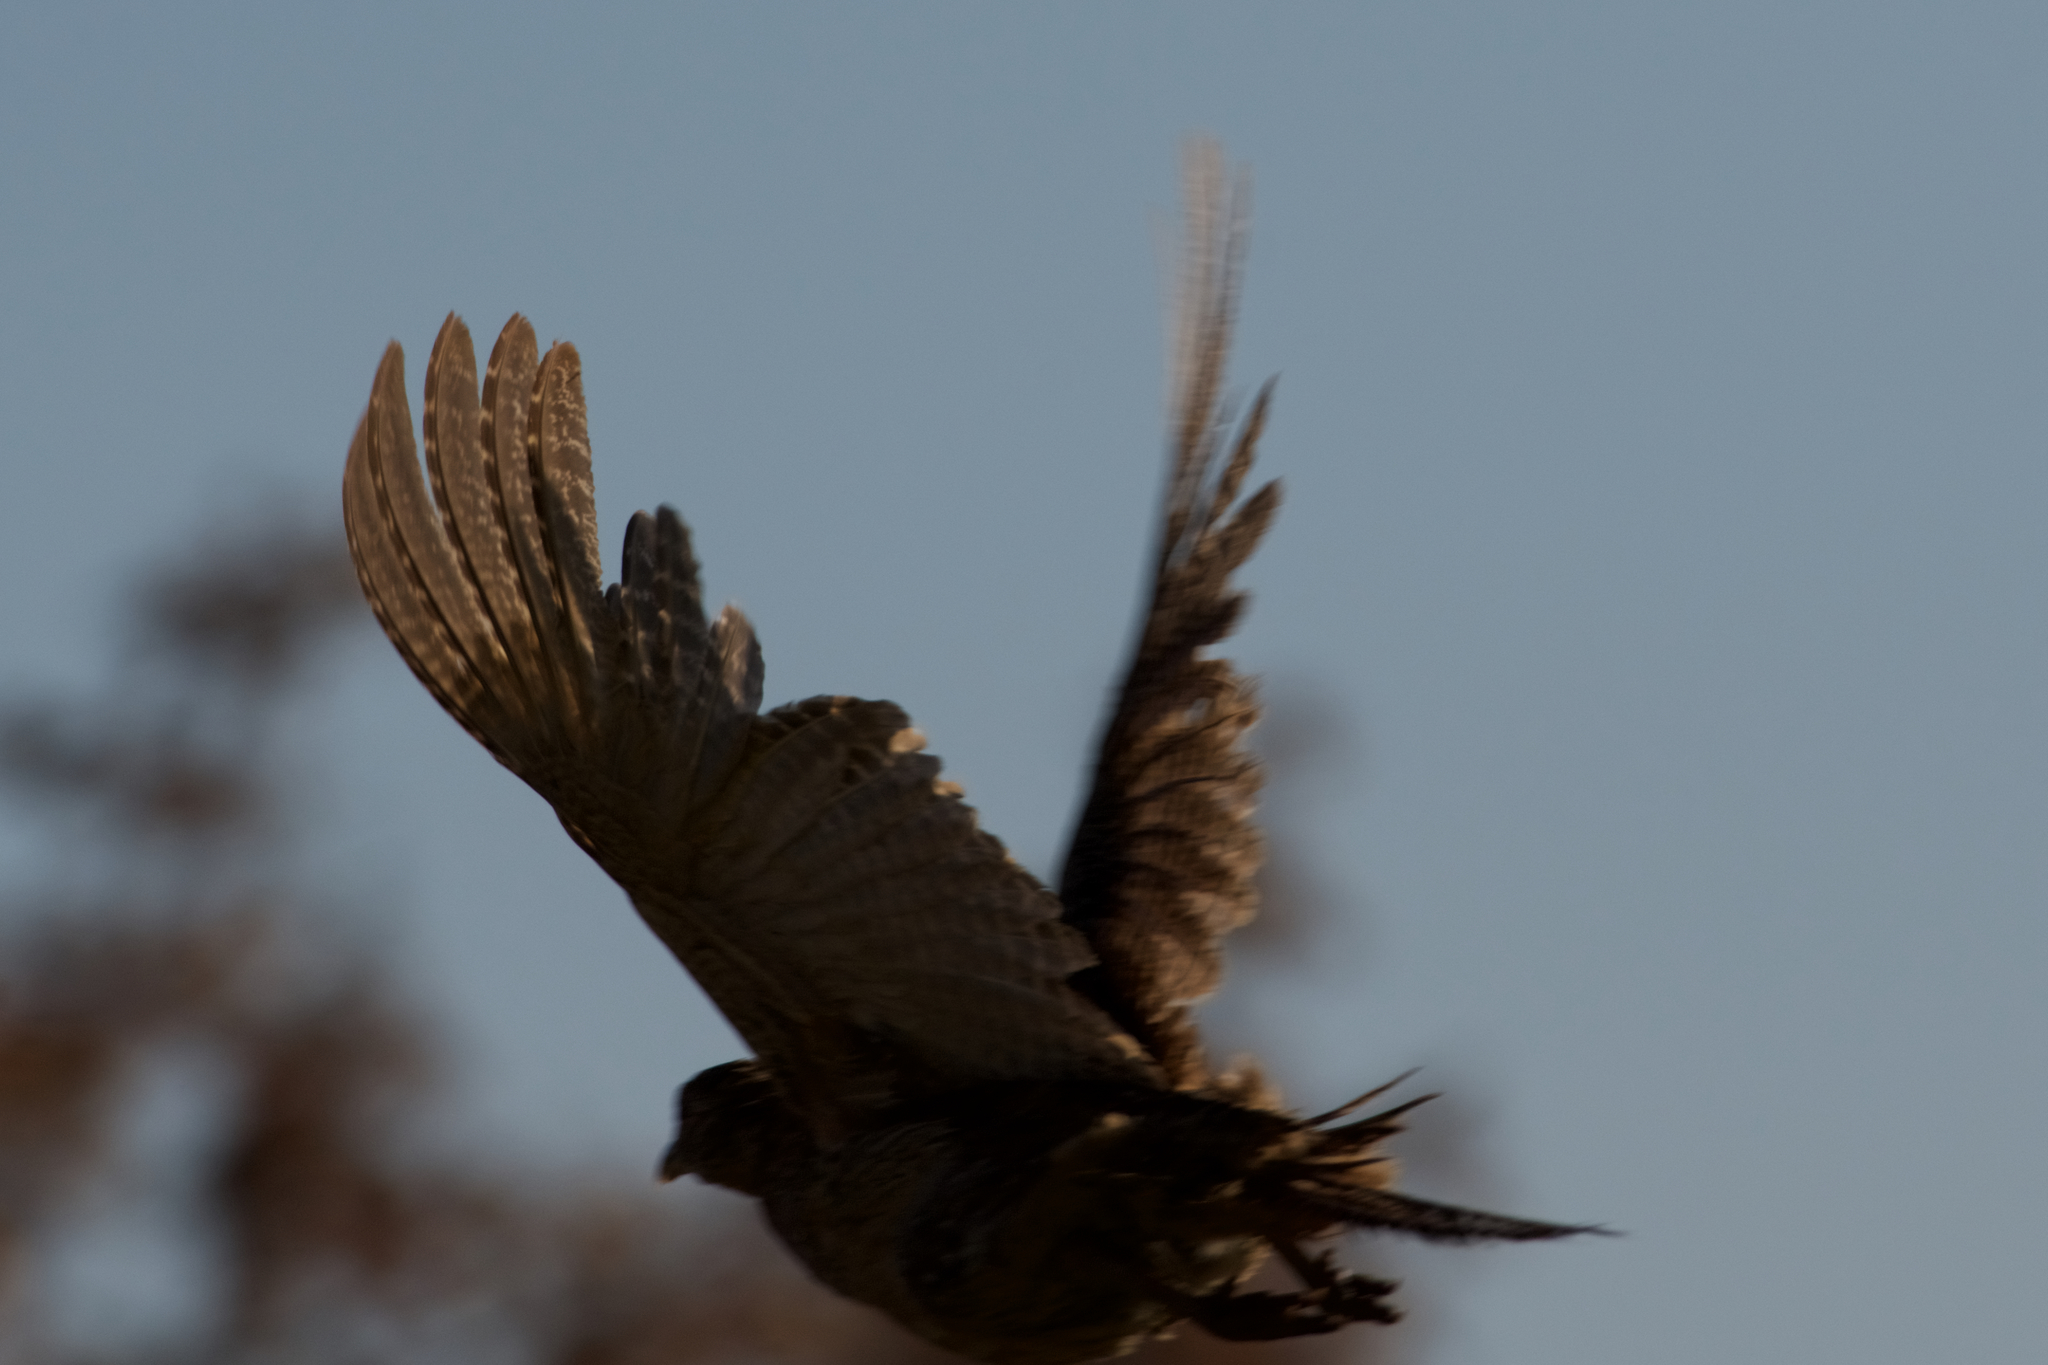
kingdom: Animalia
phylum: Chordata
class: Aves
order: Galliformes
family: Phasianidae
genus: Phasianus
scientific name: Phasianus colchicus
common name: Common pheasant
